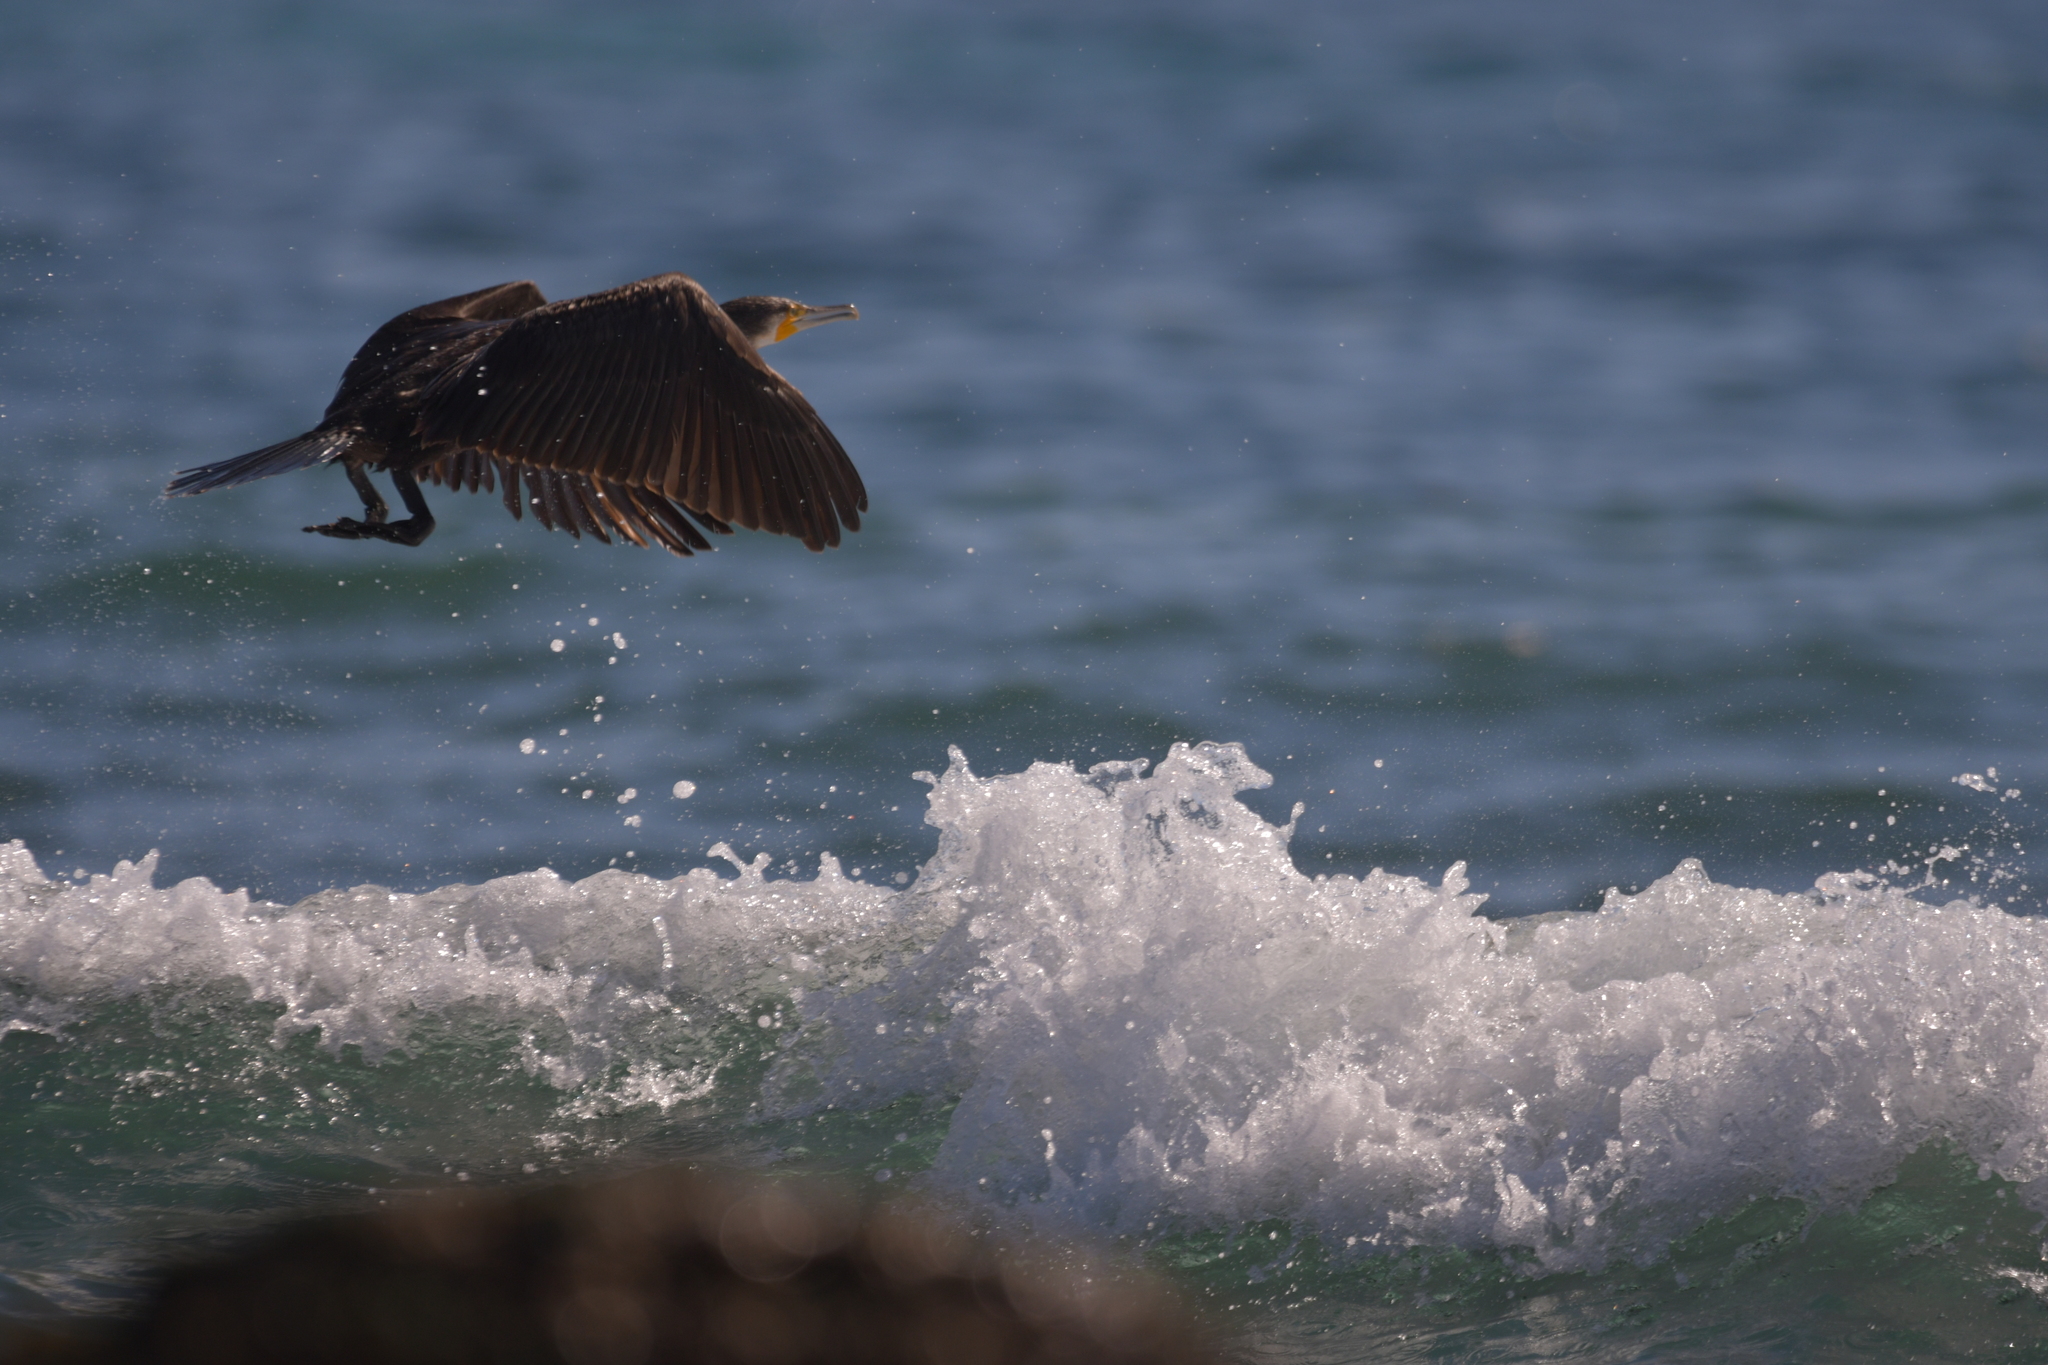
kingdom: Animalia
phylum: Chordata
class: Aves
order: Suliformes
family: Phalacrocoracidae
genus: Phalacrocorax
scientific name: Phalacrocorax carbo
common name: Great cormorant
